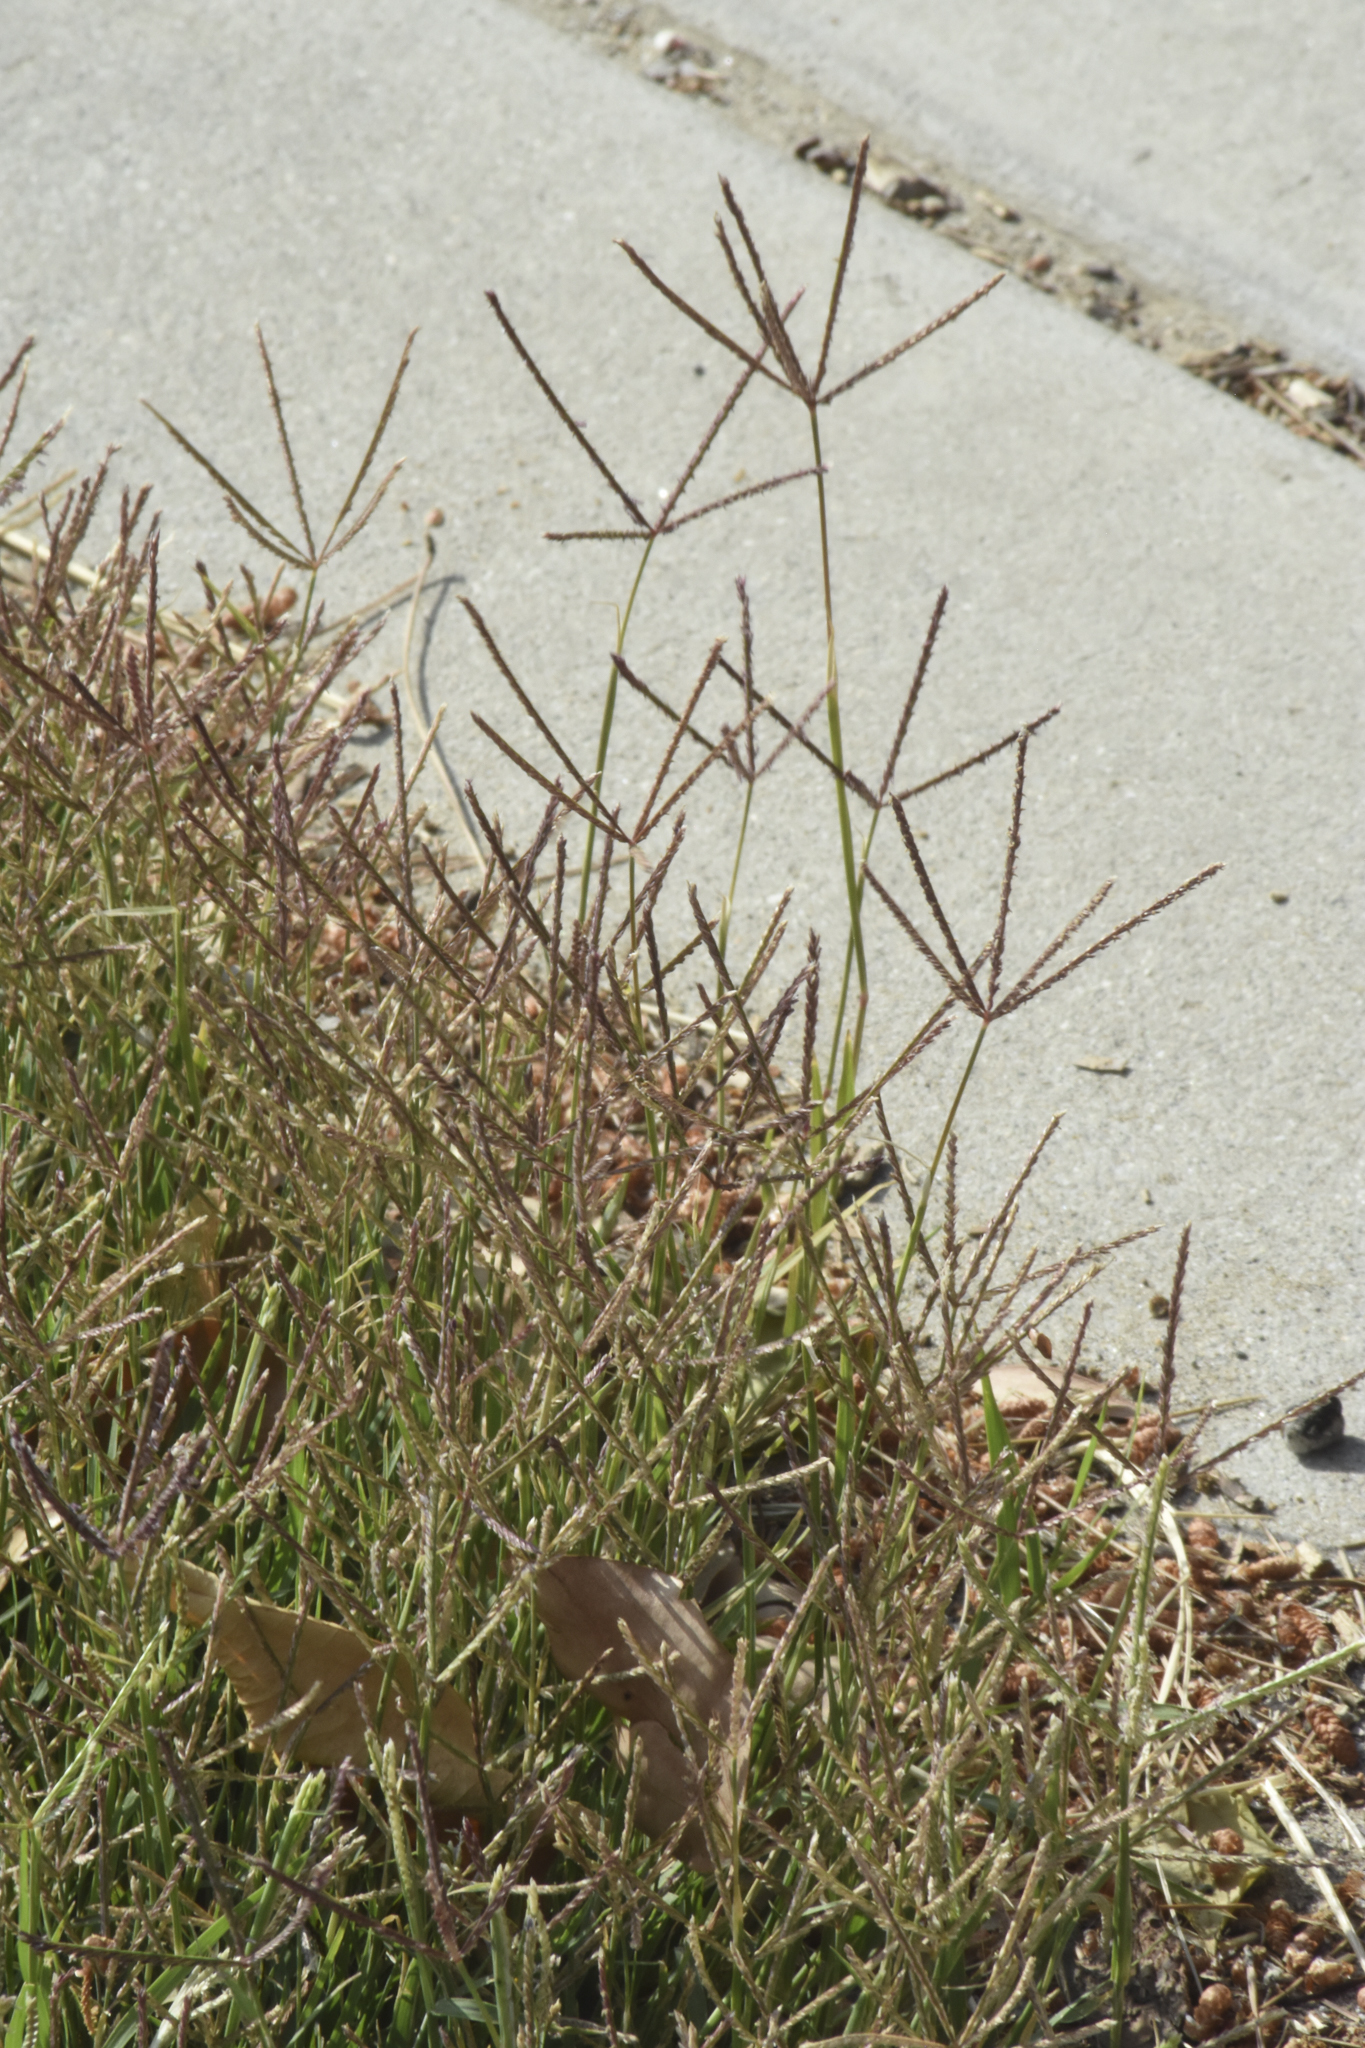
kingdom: Plantae
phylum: Tracheophyta
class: Liliopsida
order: Poales
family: Poaceae
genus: Cynodon
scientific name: Cynodon dactylon
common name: Bermuda grass
